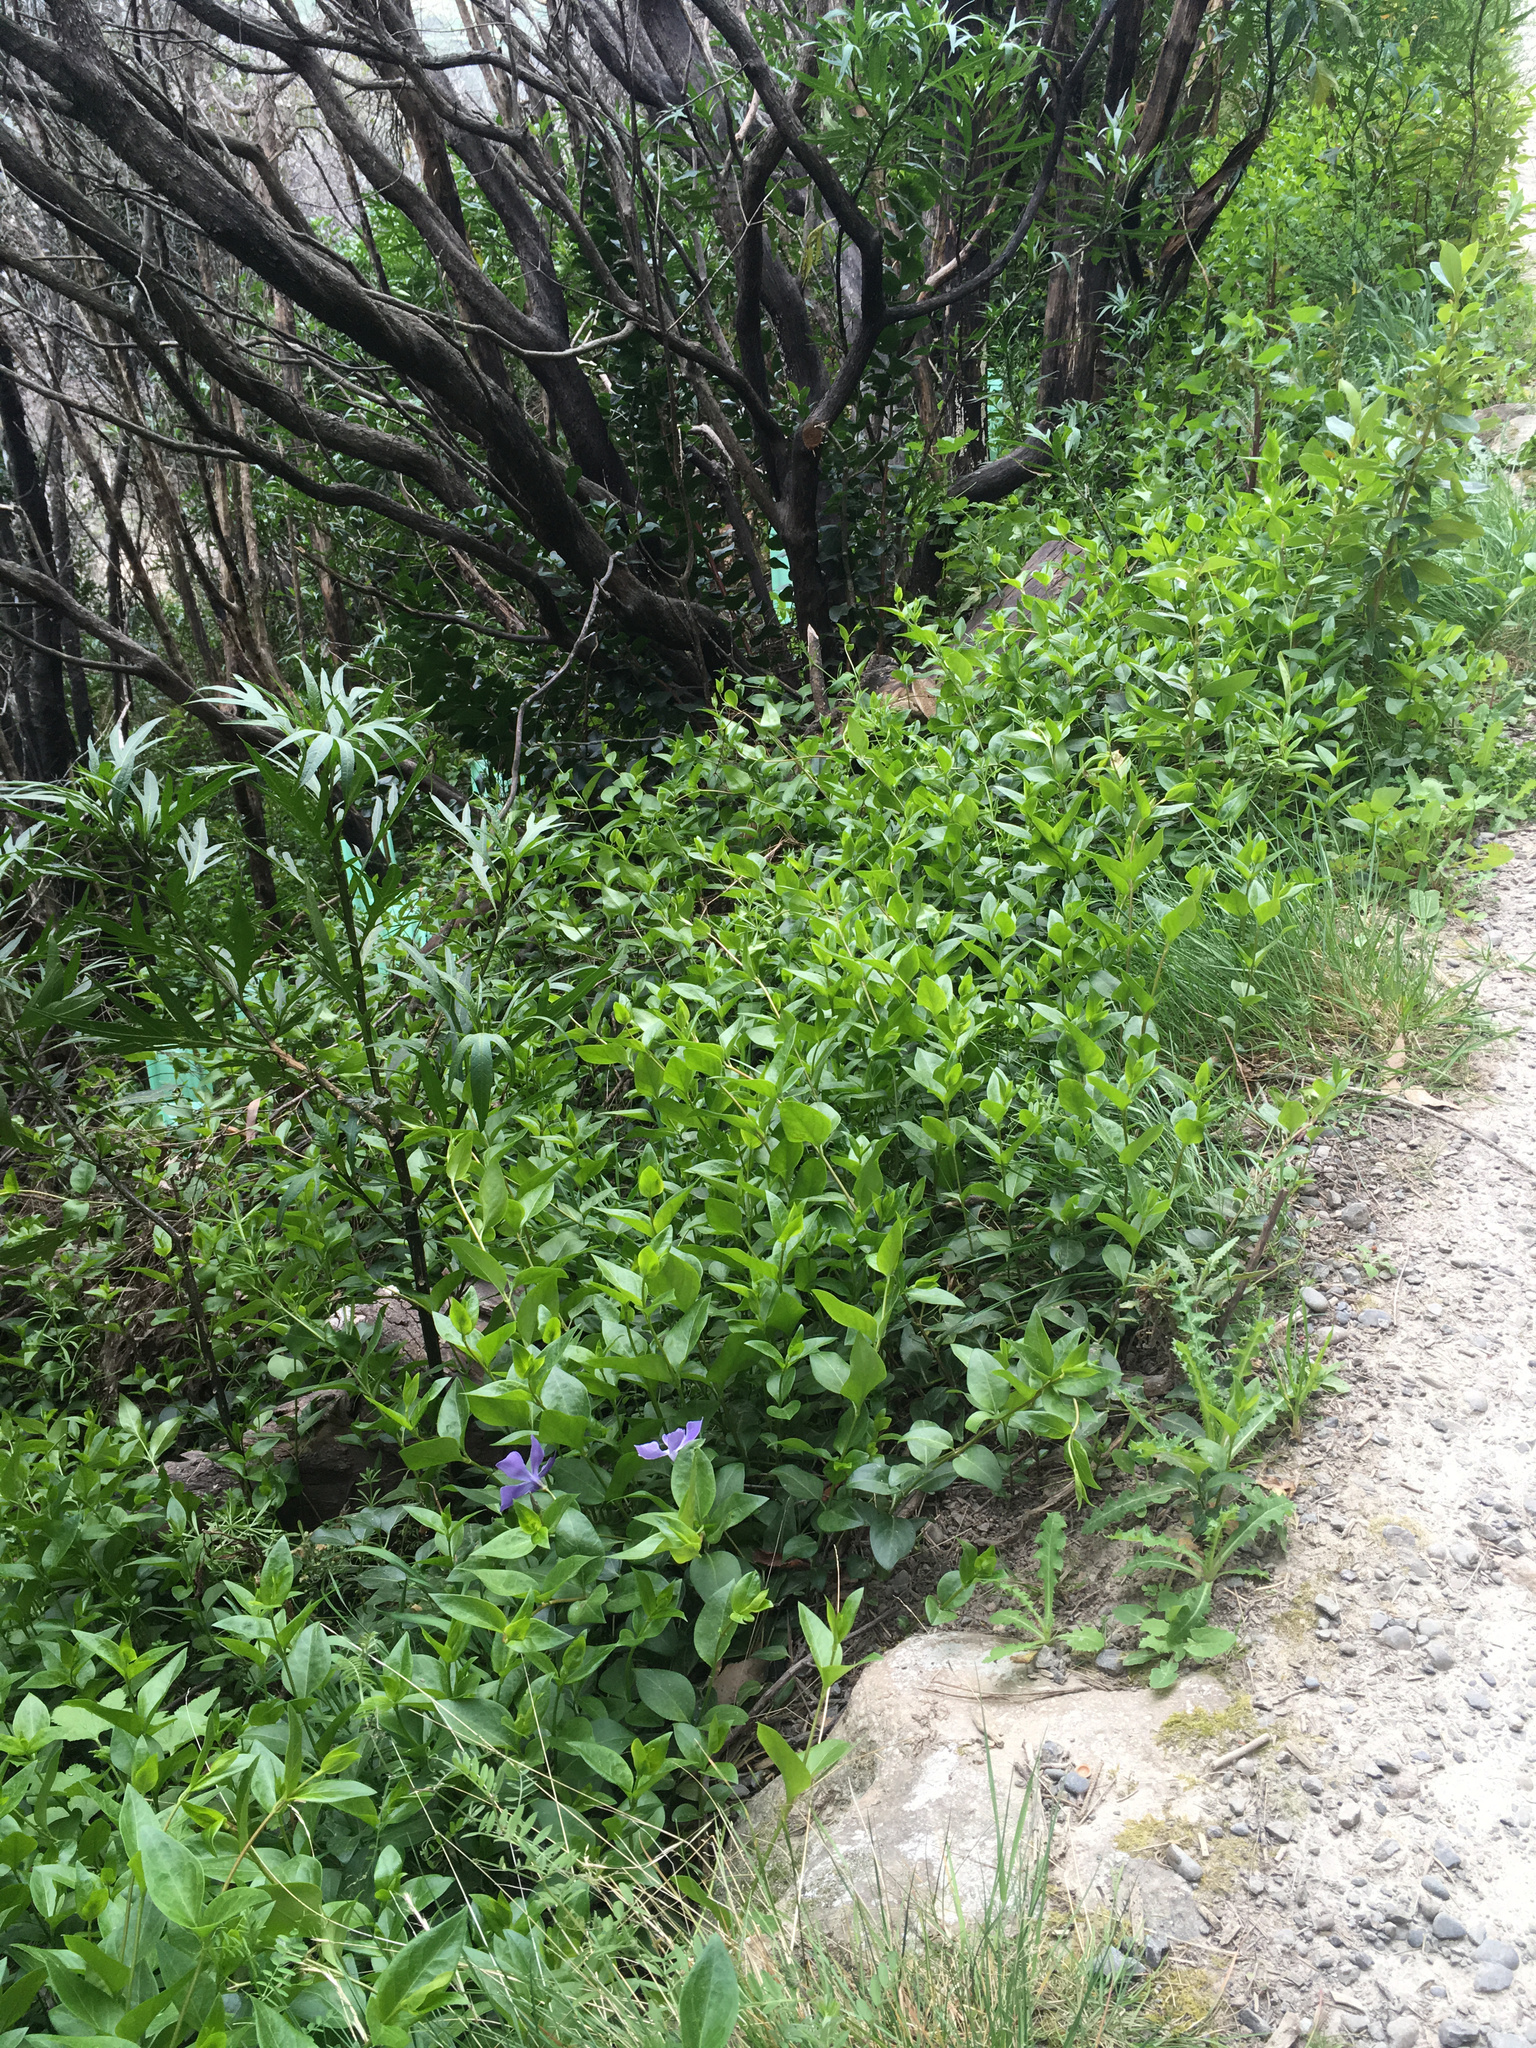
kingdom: Plantae
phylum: Tracheophyta
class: Magnoliopsida
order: Gentianales
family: Apocynaceae
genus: Vinca
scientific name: Vinca major
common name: Greater periwinkle
